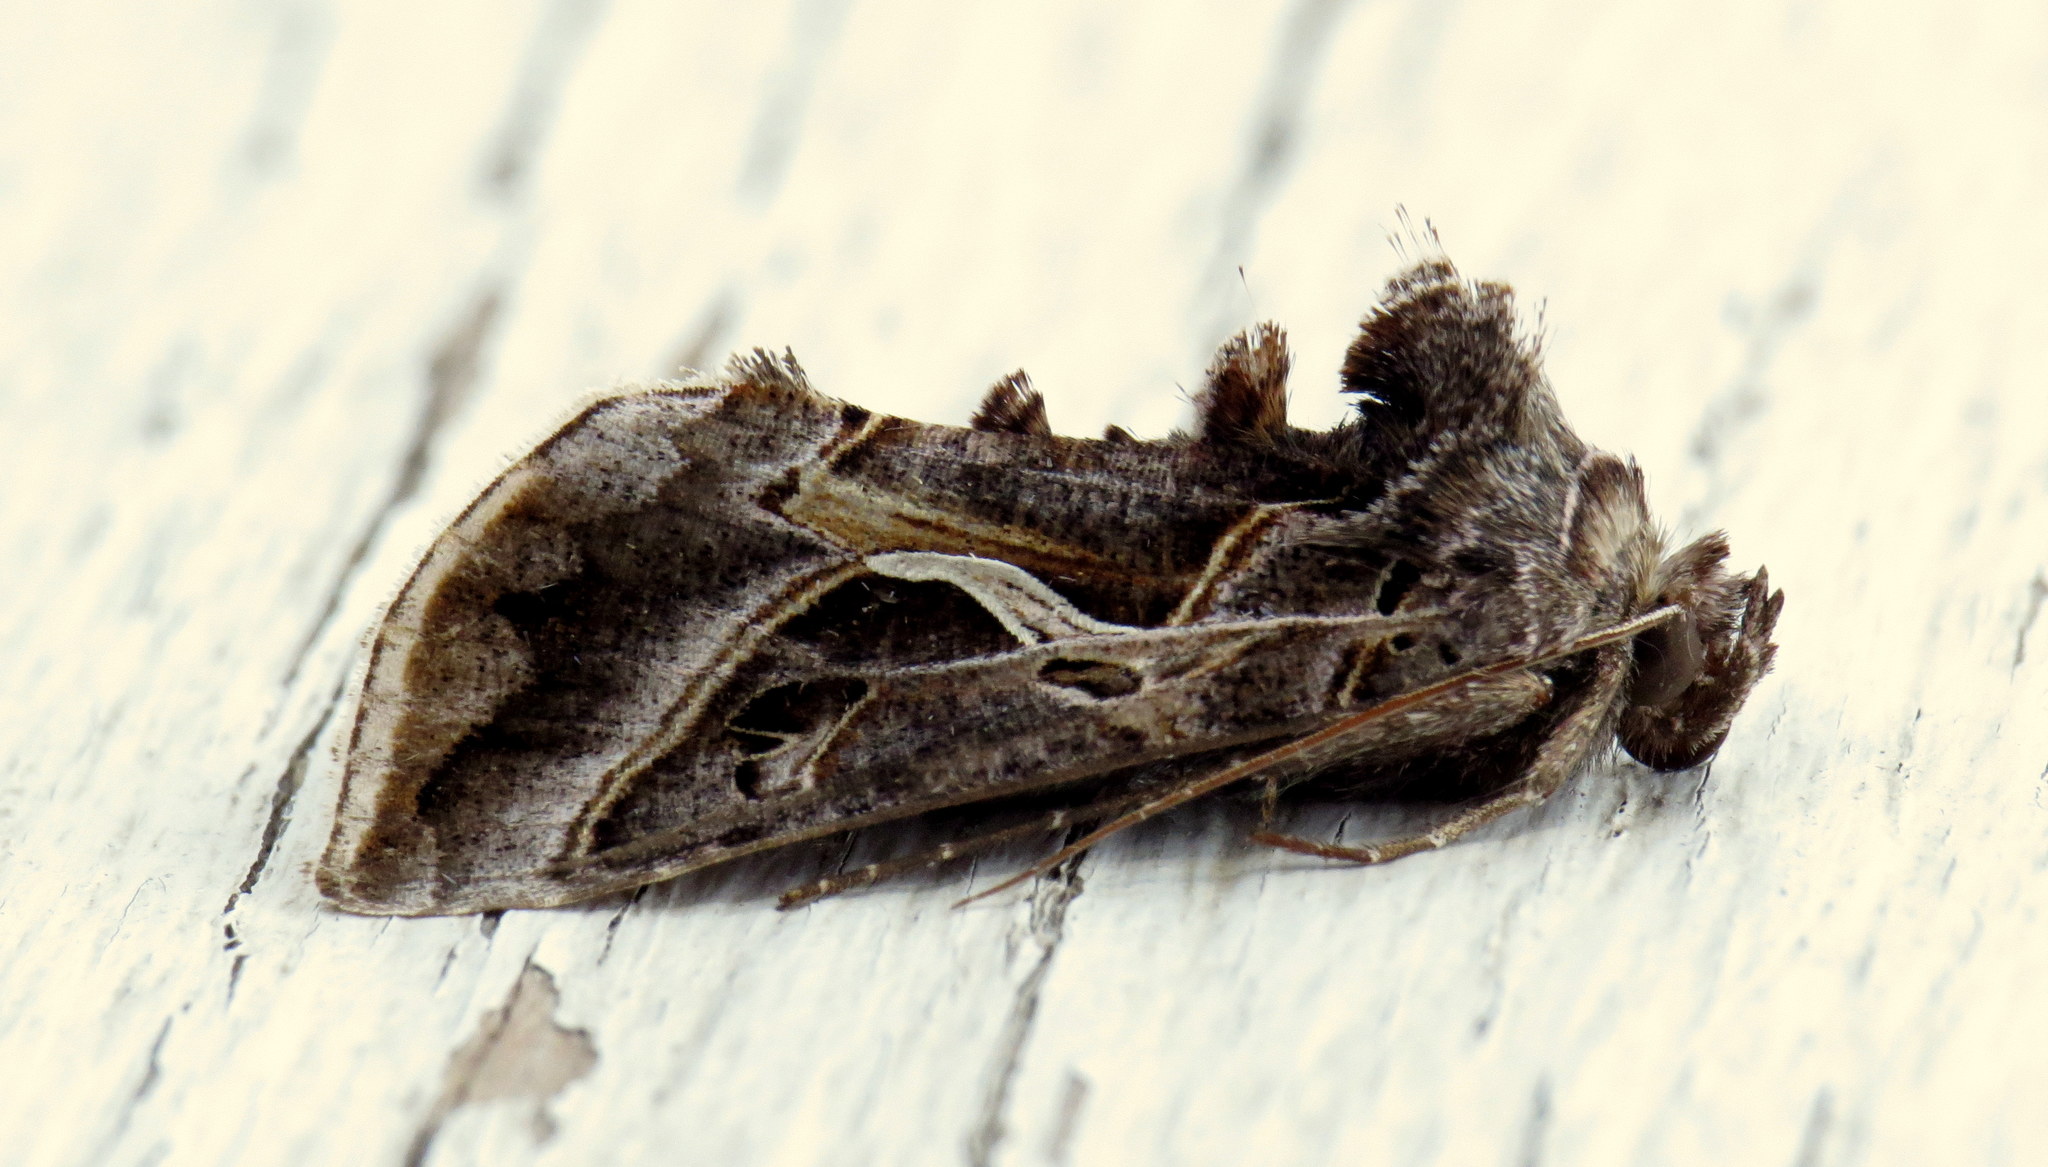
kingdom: Animalia
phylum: Arthropoda
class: Insecta
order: Lepidoptera
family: Noctuidae
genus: Autographa
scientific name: Autographa flagellum
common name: Silver whip moth
